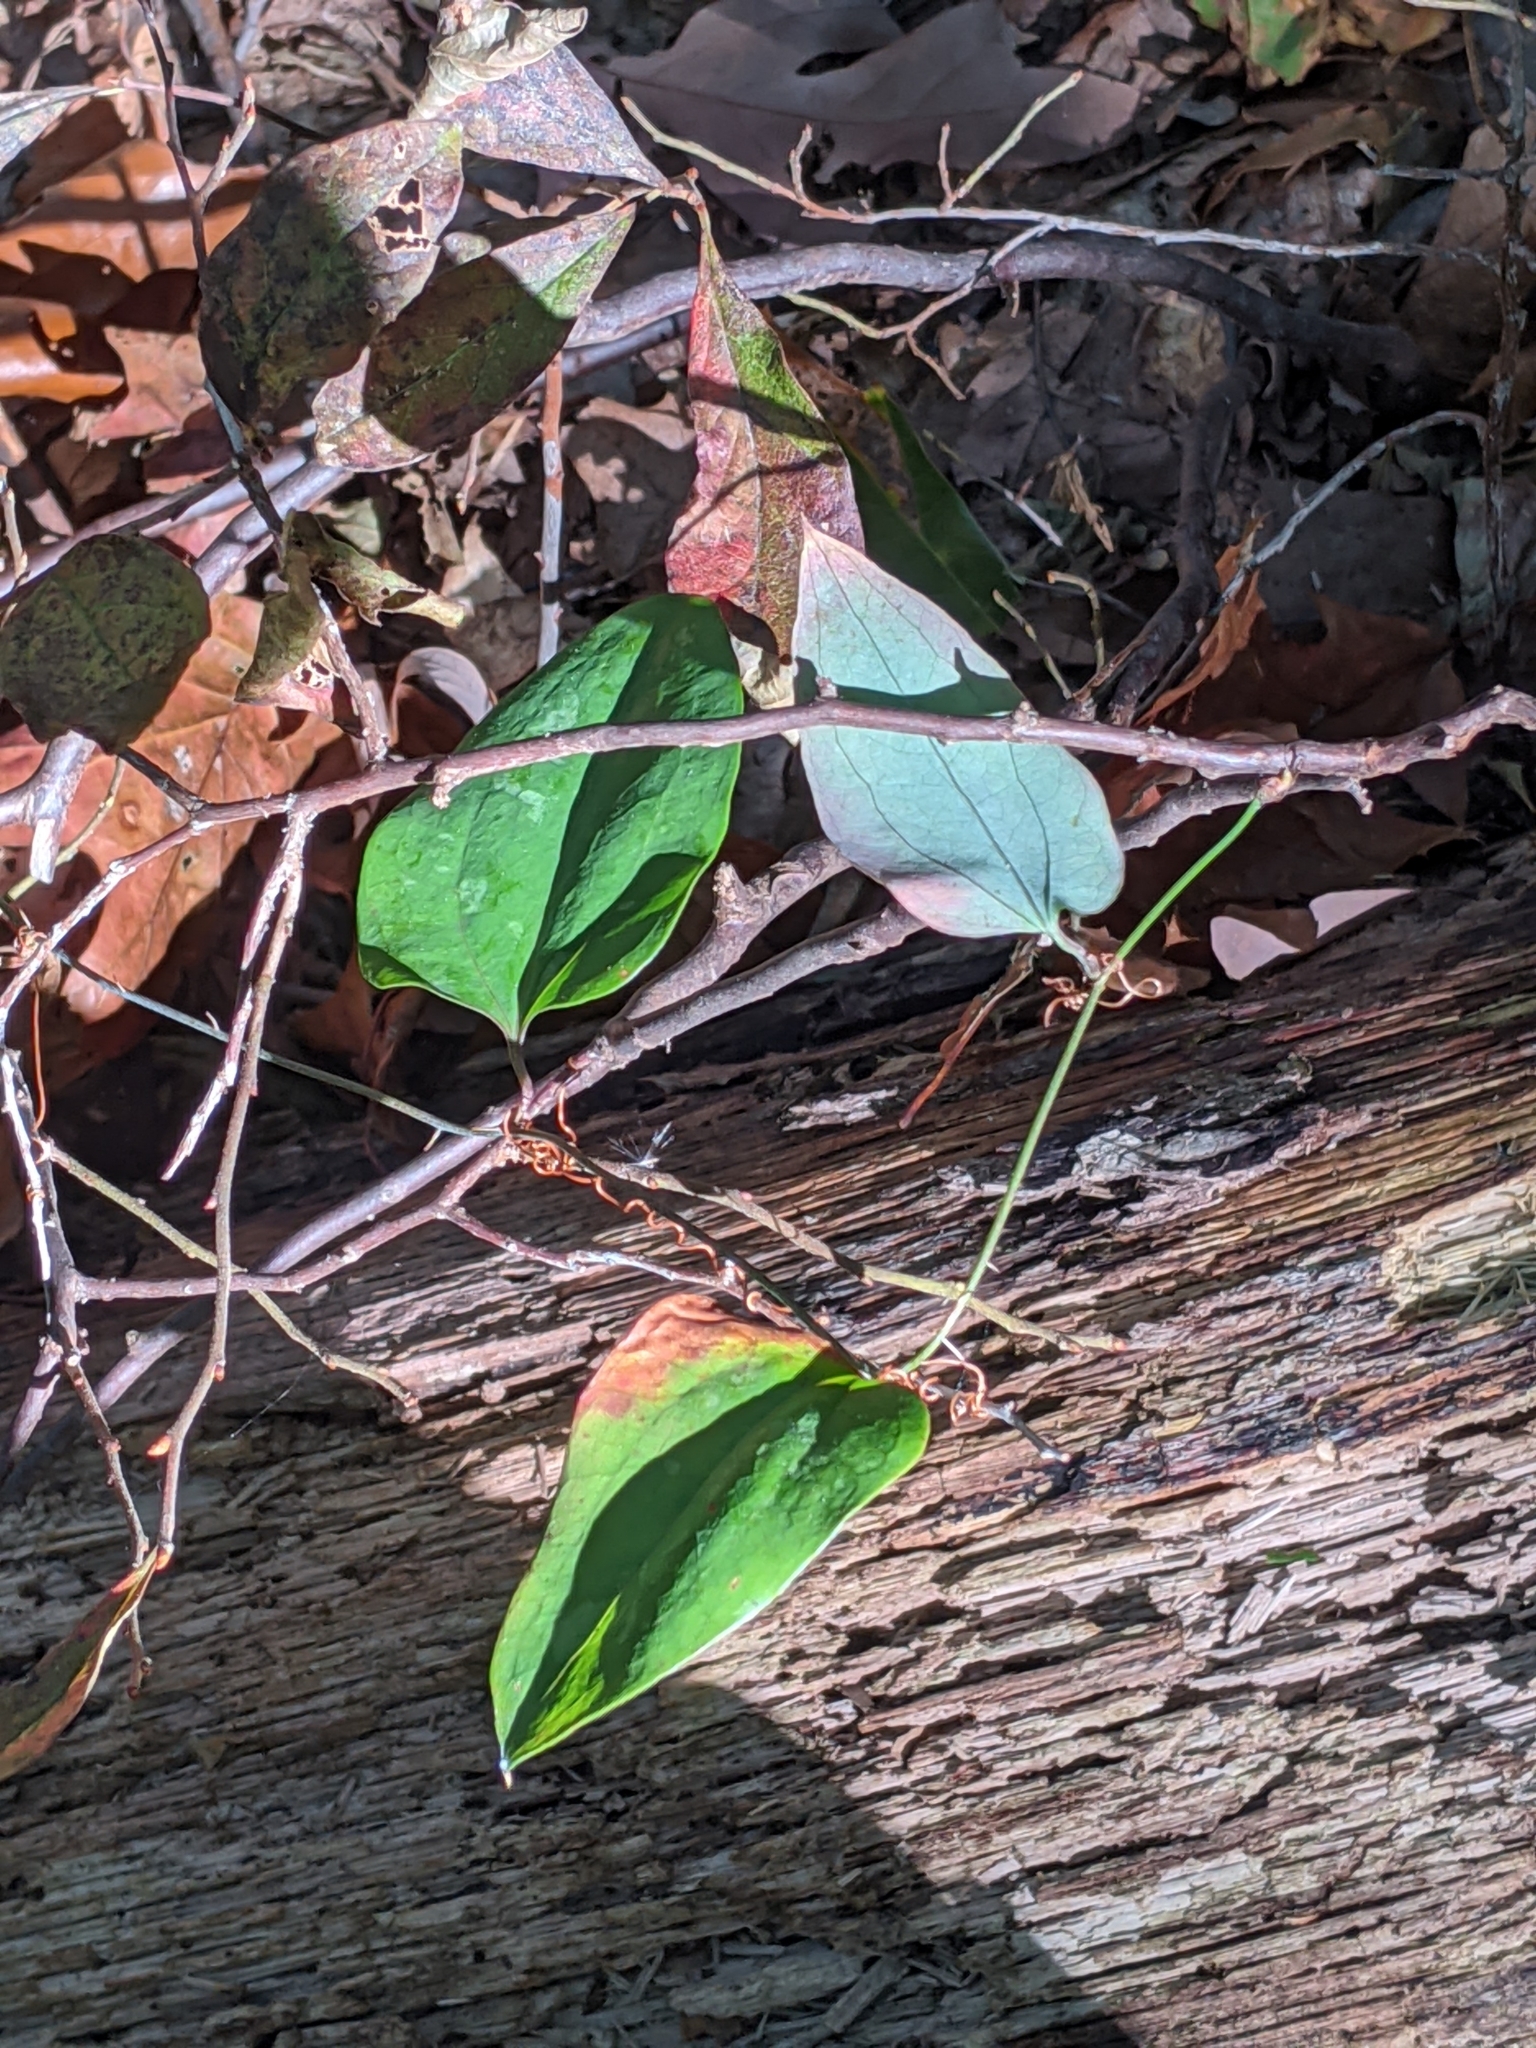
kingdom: Plantae
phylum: Tracheophyta
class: Liliopsida
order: Liliales
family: Smilacaceae
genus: Smilax
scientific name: Smilax glauca
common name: Cat greenbrier
